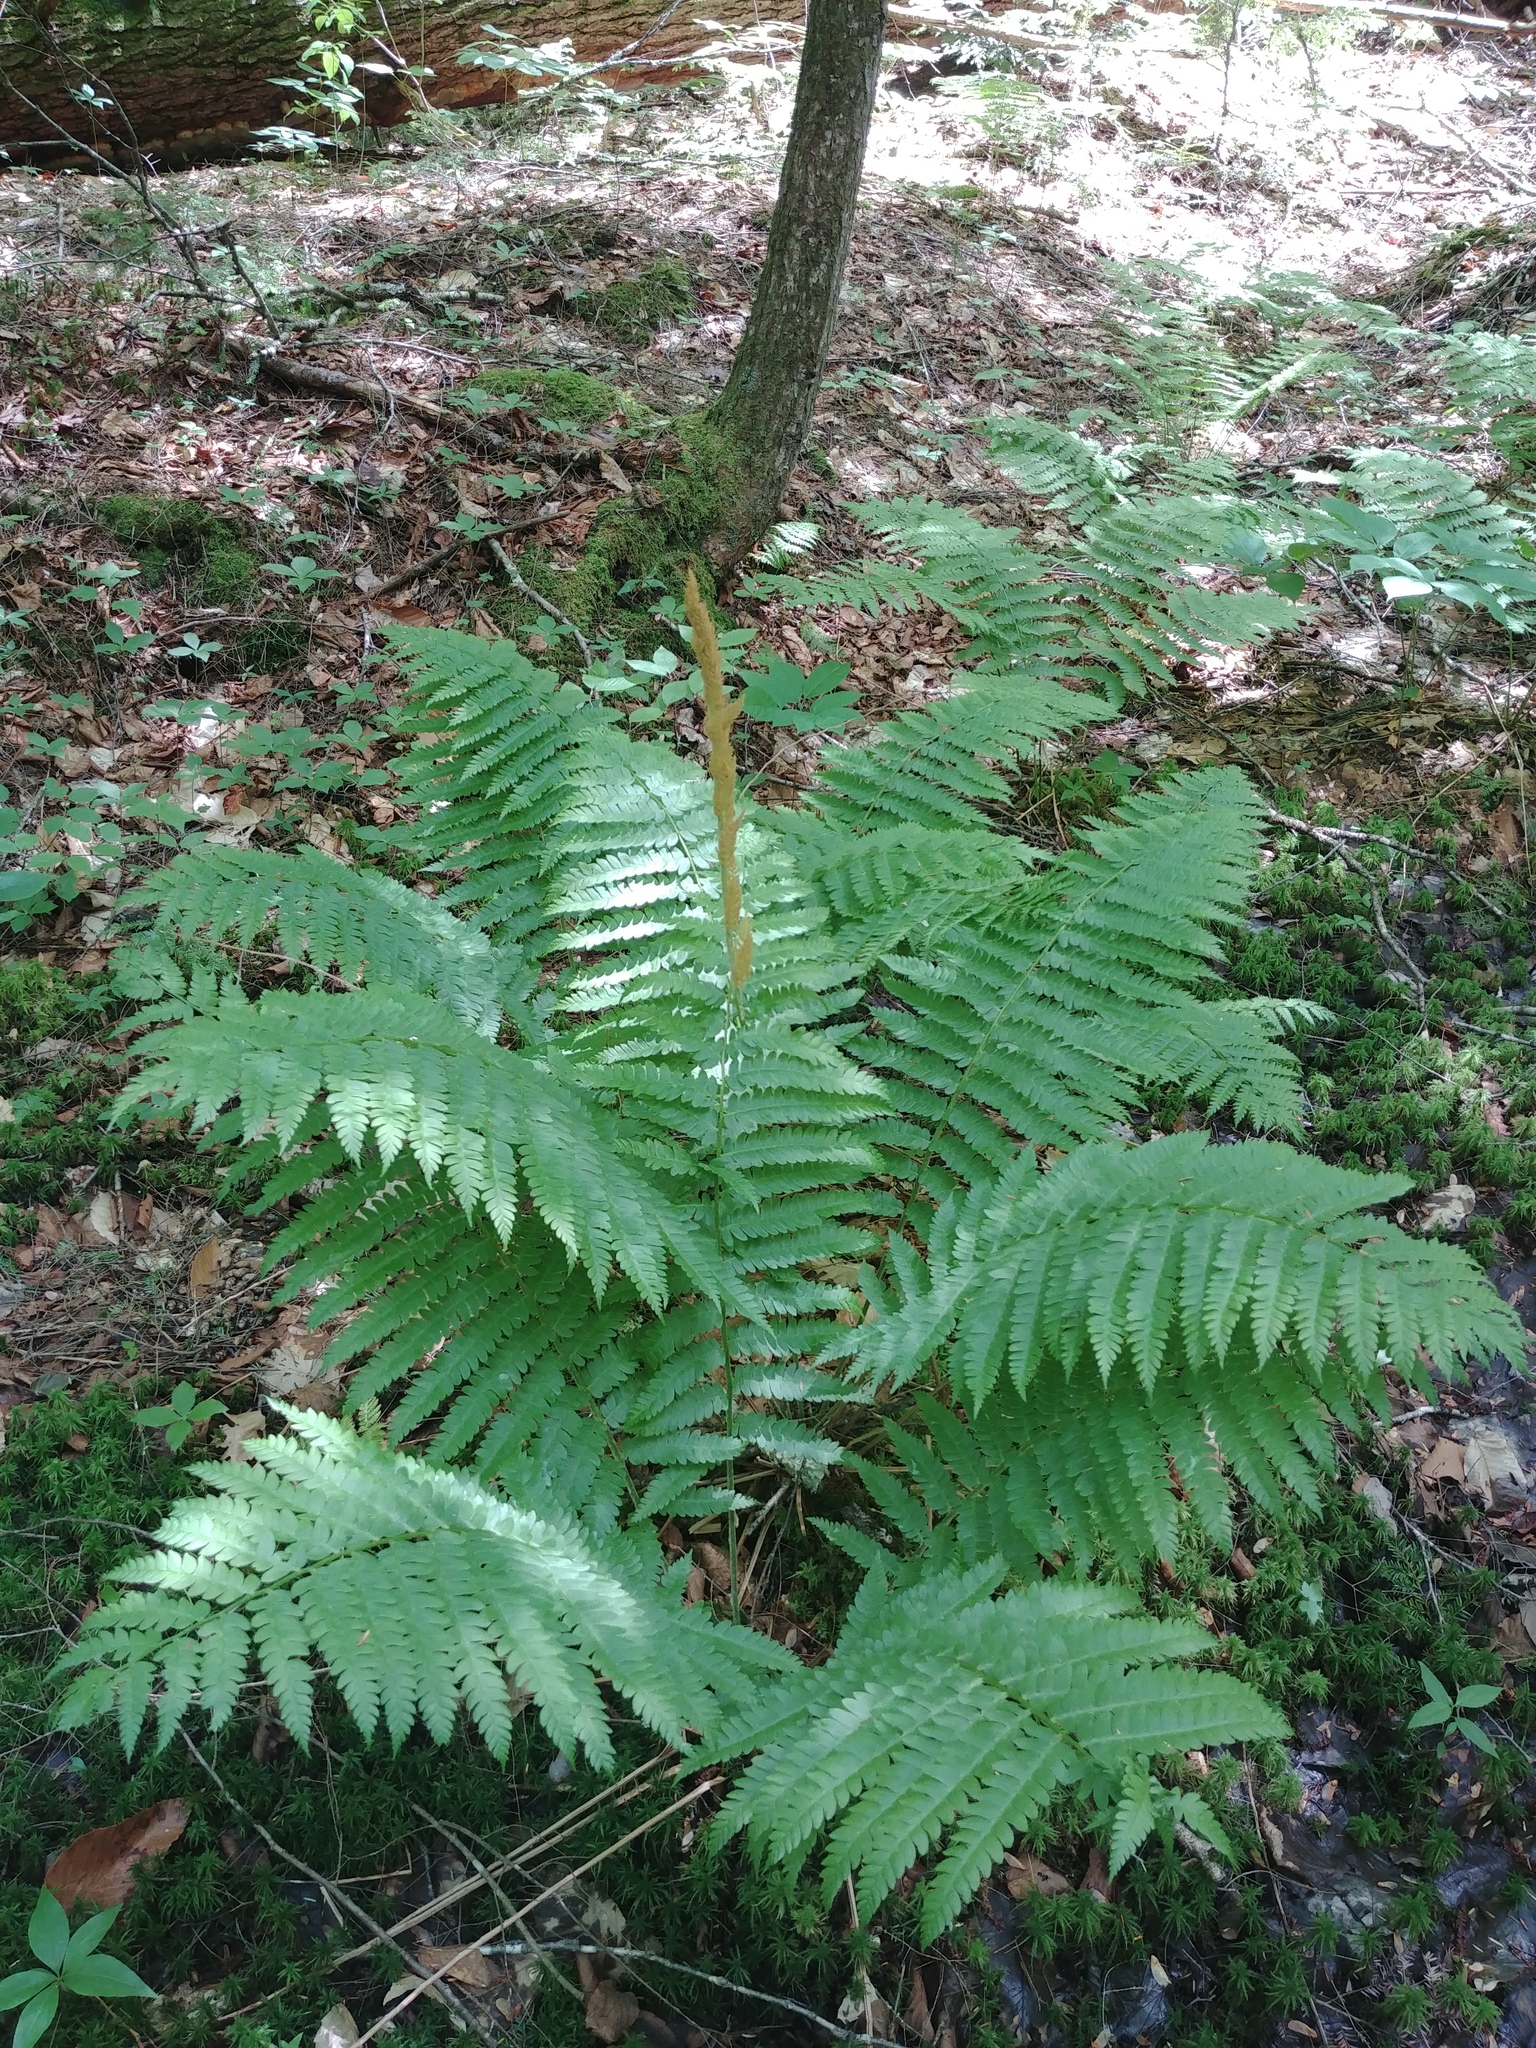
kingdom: Plantae
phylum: Tracheophyta
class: Polypodiopsida
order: Osmundales
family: Osmundaceae
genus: Osmundastrum
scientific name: Osmundastrum cinnamomeum
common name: Cinnamon fern
